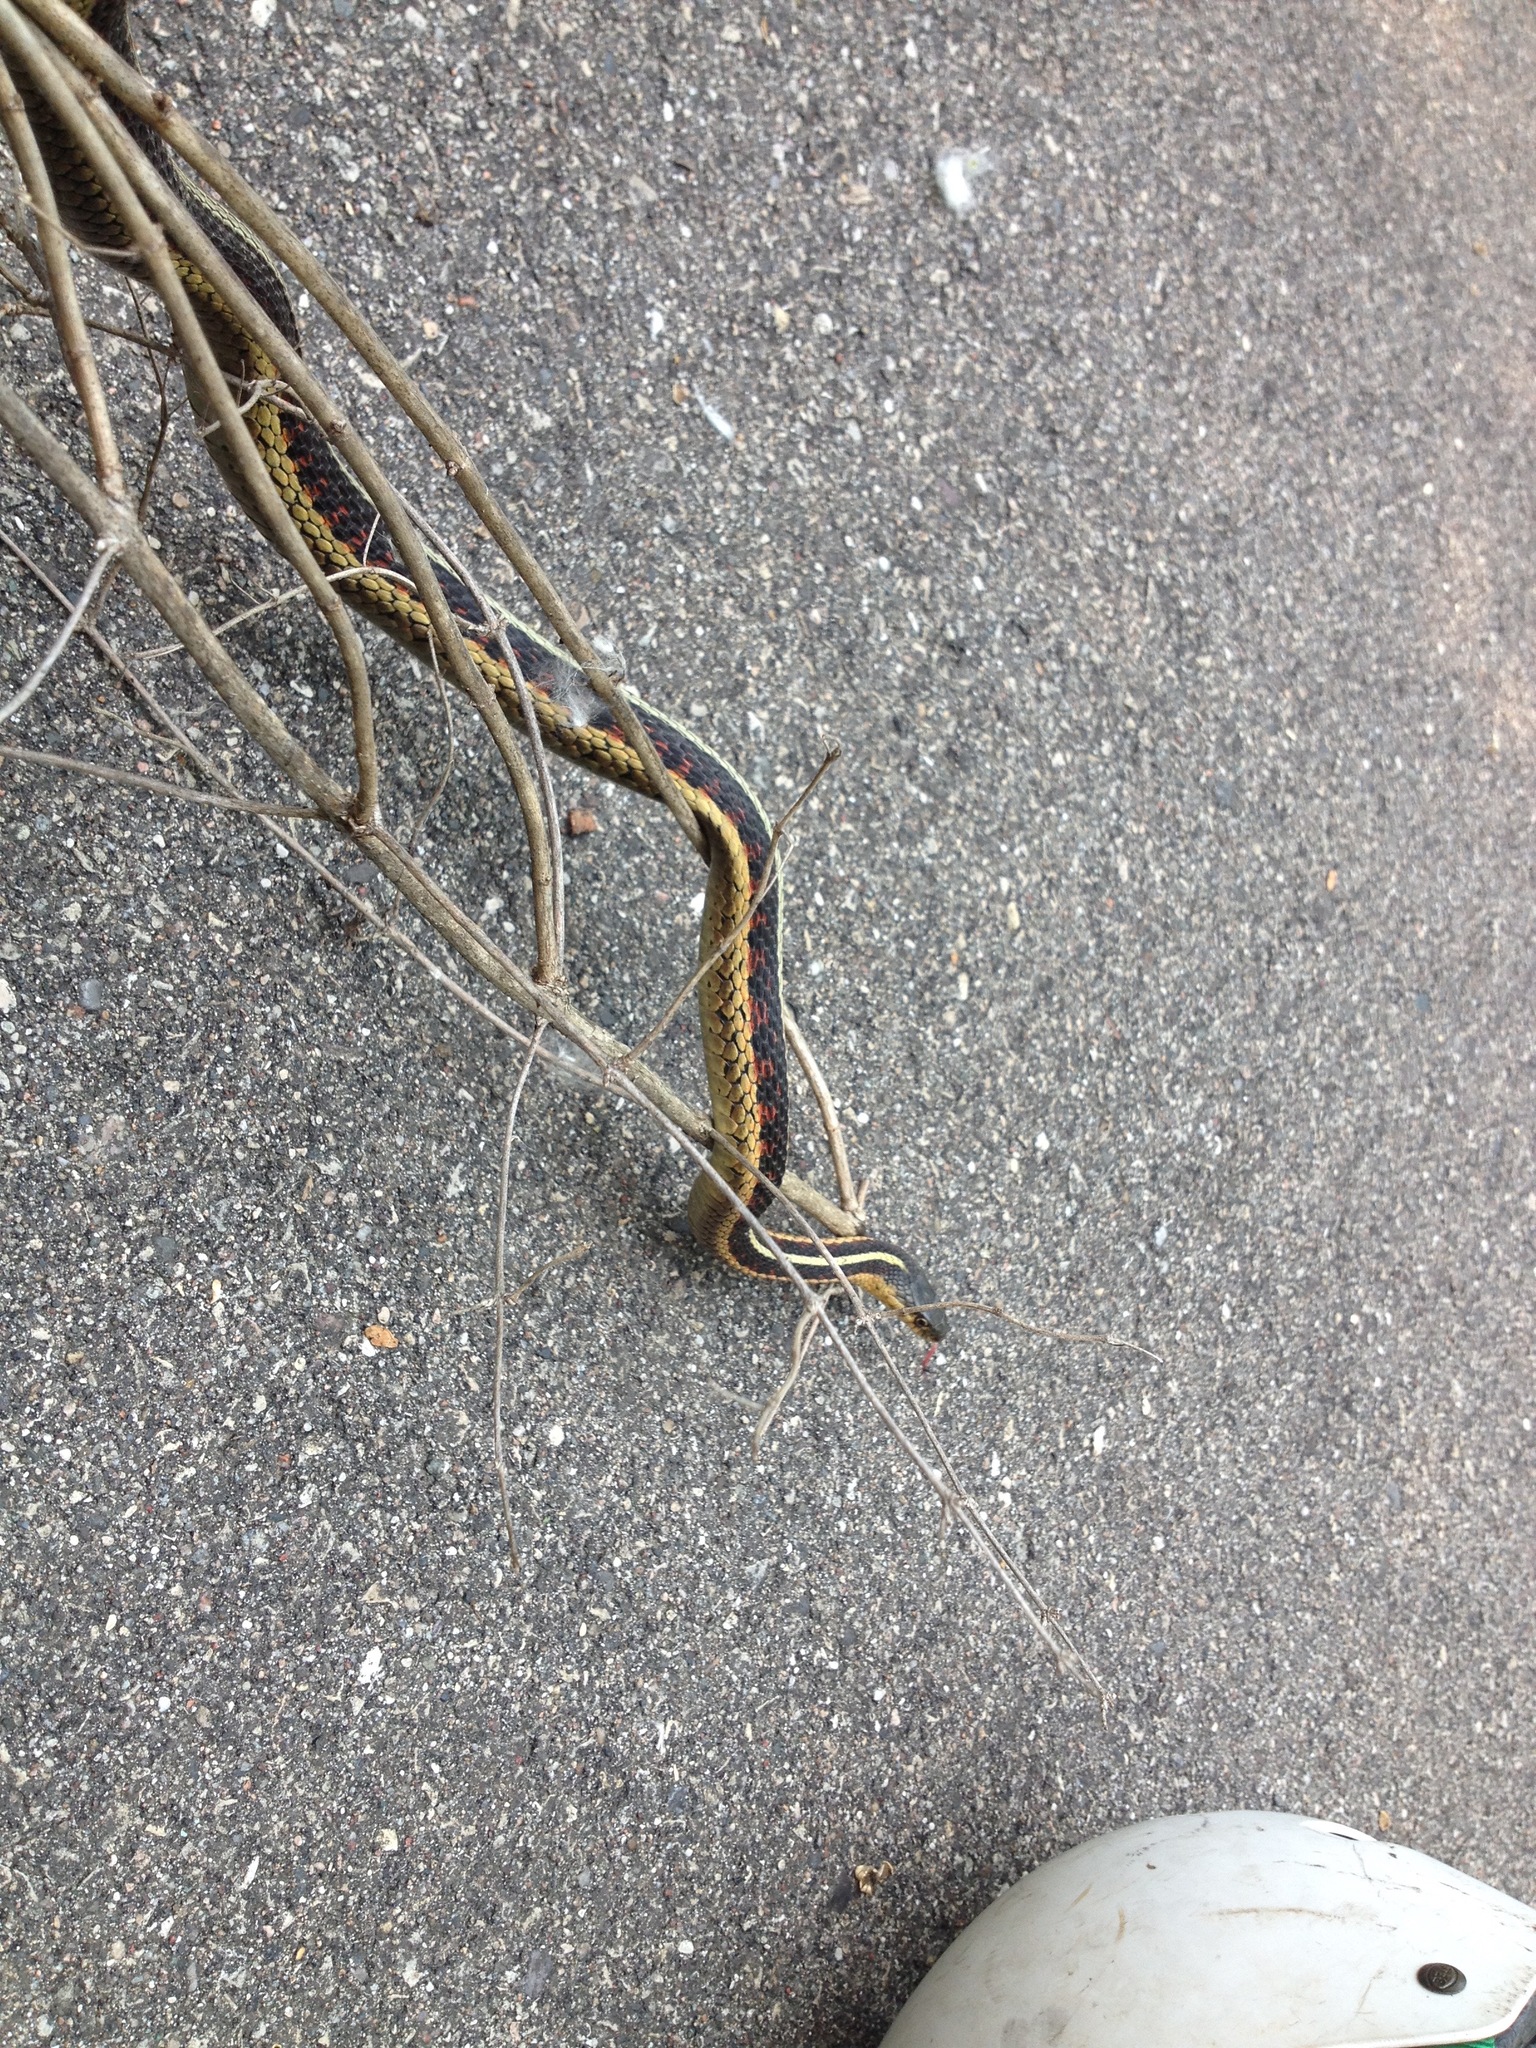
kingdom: Animalia
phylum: Chordata
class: Squamata
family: Colubridae
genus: Thamnophis
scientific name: Thamnophis sirtalis
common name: Common garter snake
